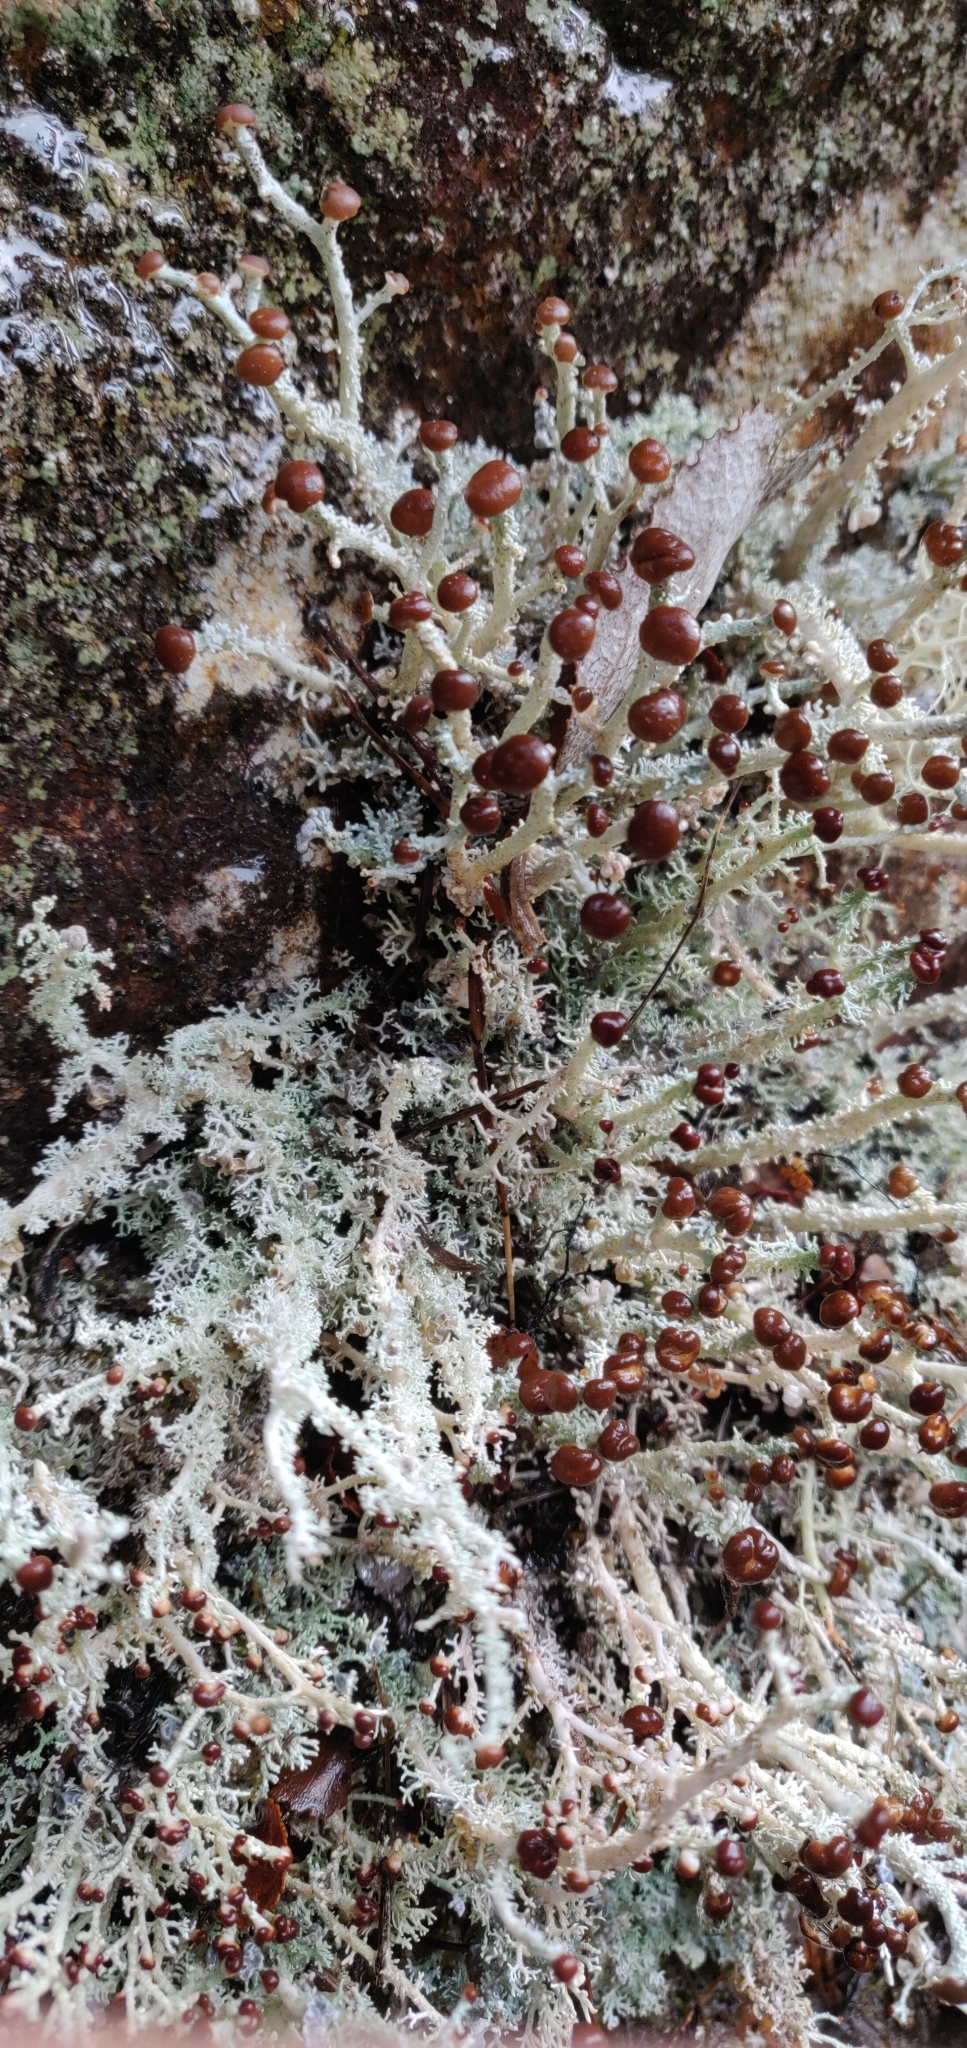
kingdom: Fungi
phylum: Ascomycota
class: Lecanoromycetes
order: Lecanorales
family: Stereocaulaceae
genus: Stereocaulon
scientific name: Stereocaulon ramulosum
